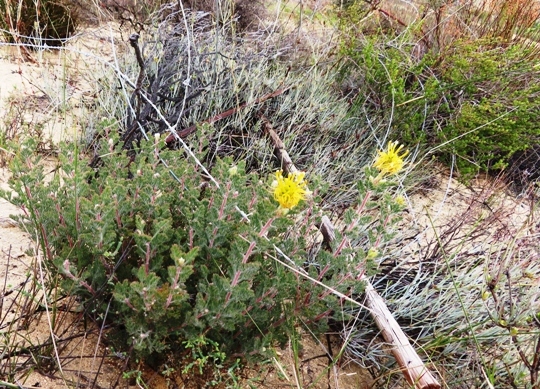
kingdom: Plantae
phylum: Tracheophyta
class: Magnoliopsida
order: Proteales
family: Proteaceae
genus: Serruria
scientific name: Serruria flava
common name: Spiderhead
